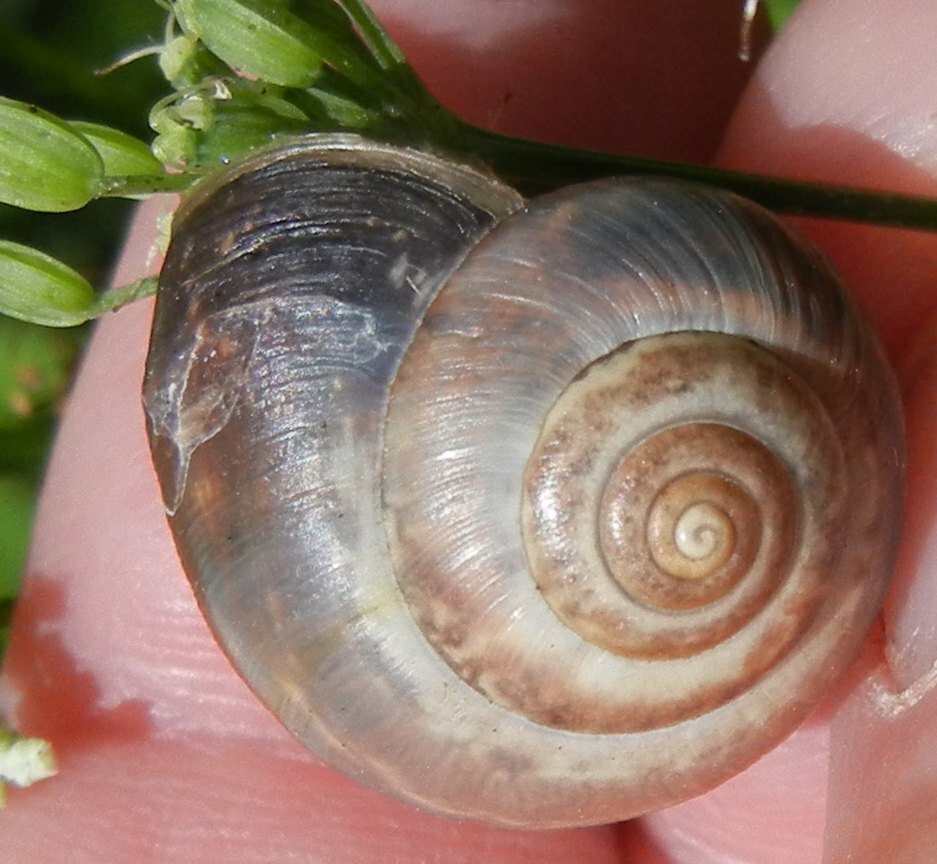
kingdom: Animalia
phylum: Mollusca
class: Gastropoda
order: Stylommatophora
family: Hygromiidae
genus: Monacha
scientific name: Monacha cantiana
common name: Kentish snail
